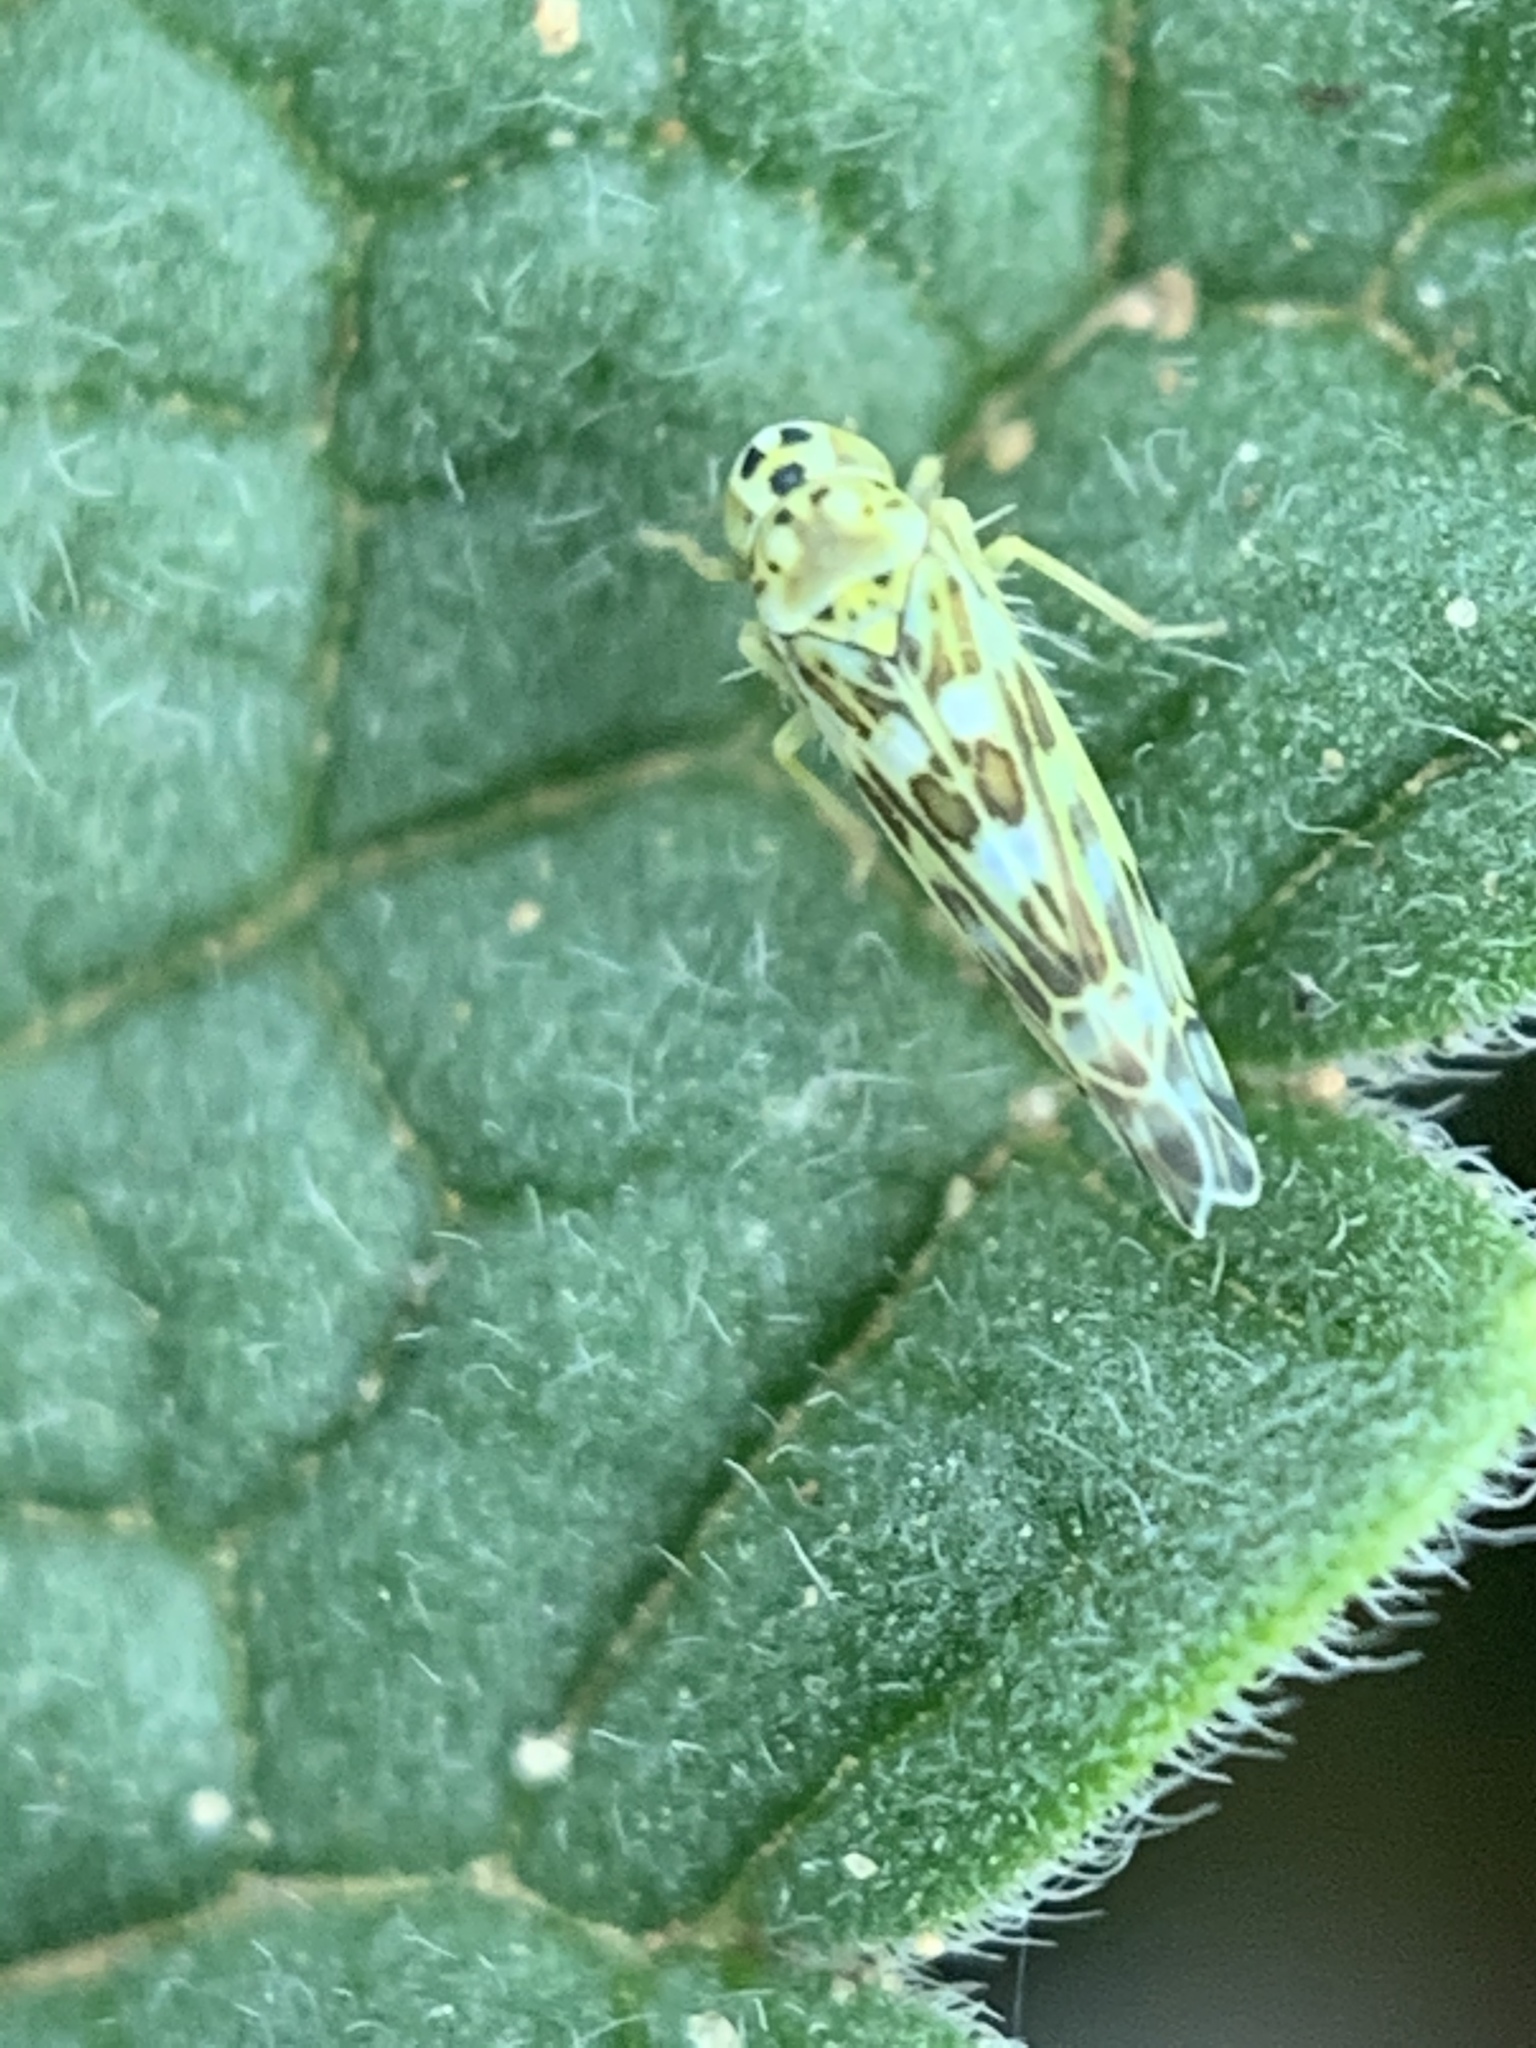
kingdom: Animalia
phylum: Arthropoda
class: Insecta
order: Hemiptera
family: Cicadellidae
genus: Eupteryx
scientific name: Eupteryx melissae
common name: Herb leafhopper
